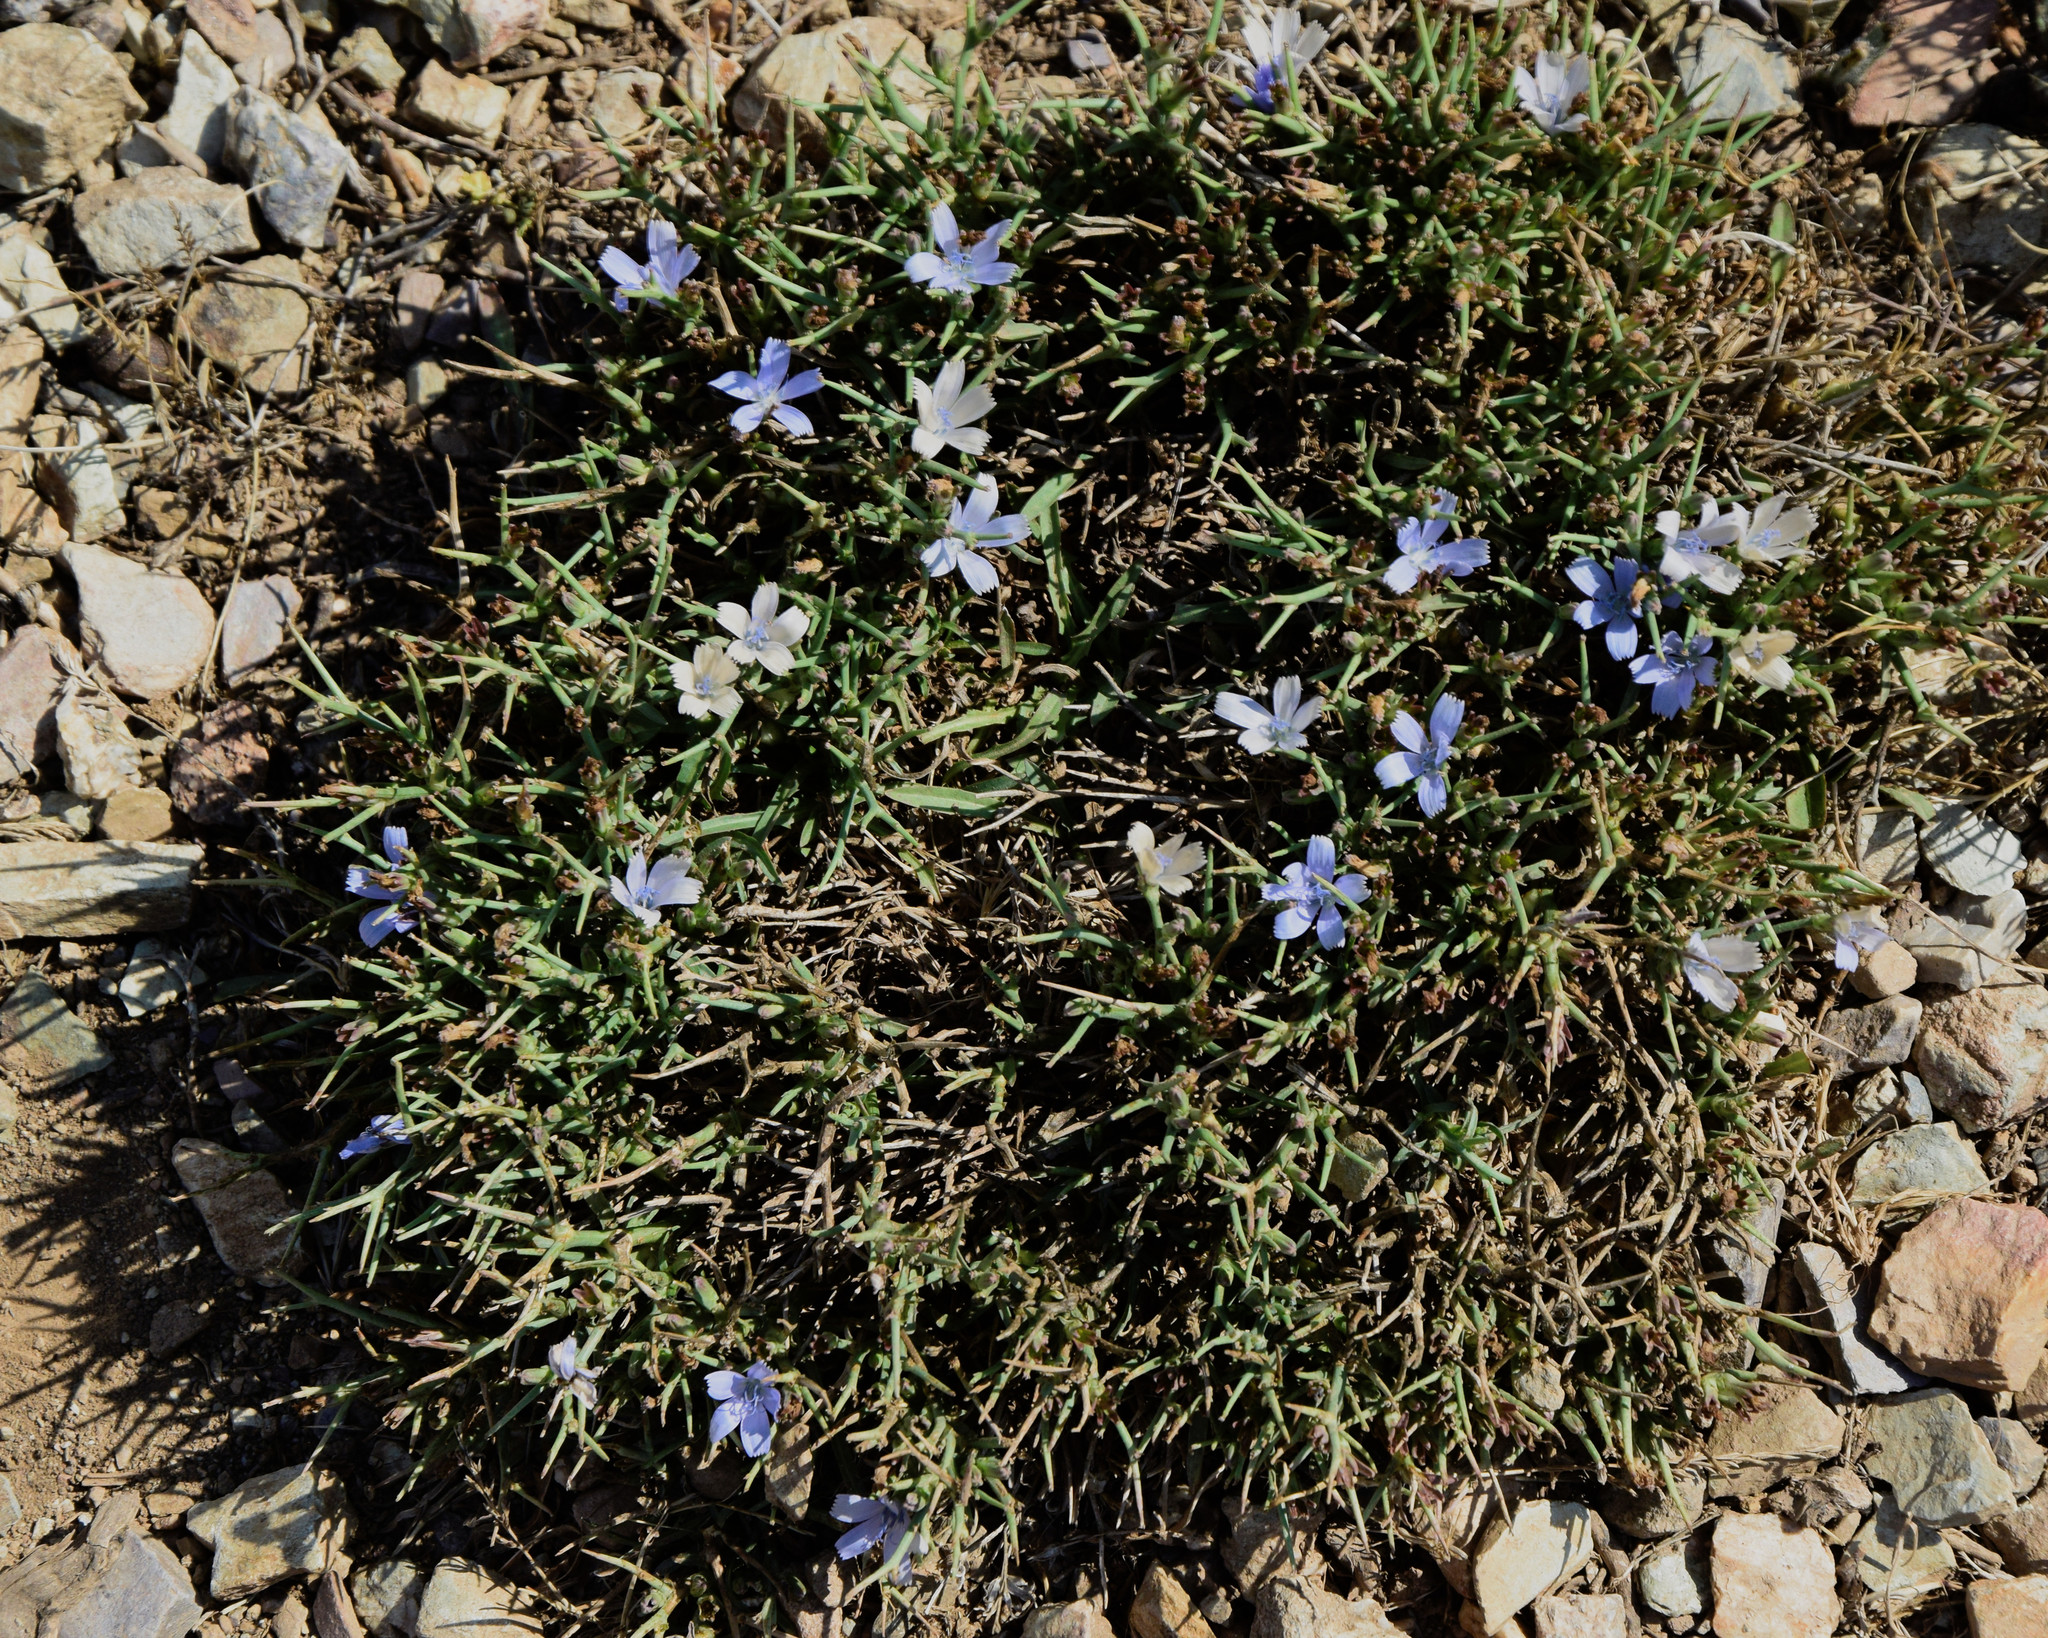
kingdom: Plantae
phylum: Tracheophyta
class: Magnoliopsida
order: Asterales
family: Asteraceae
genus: Cichorium
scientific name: Cichorium spinosum
